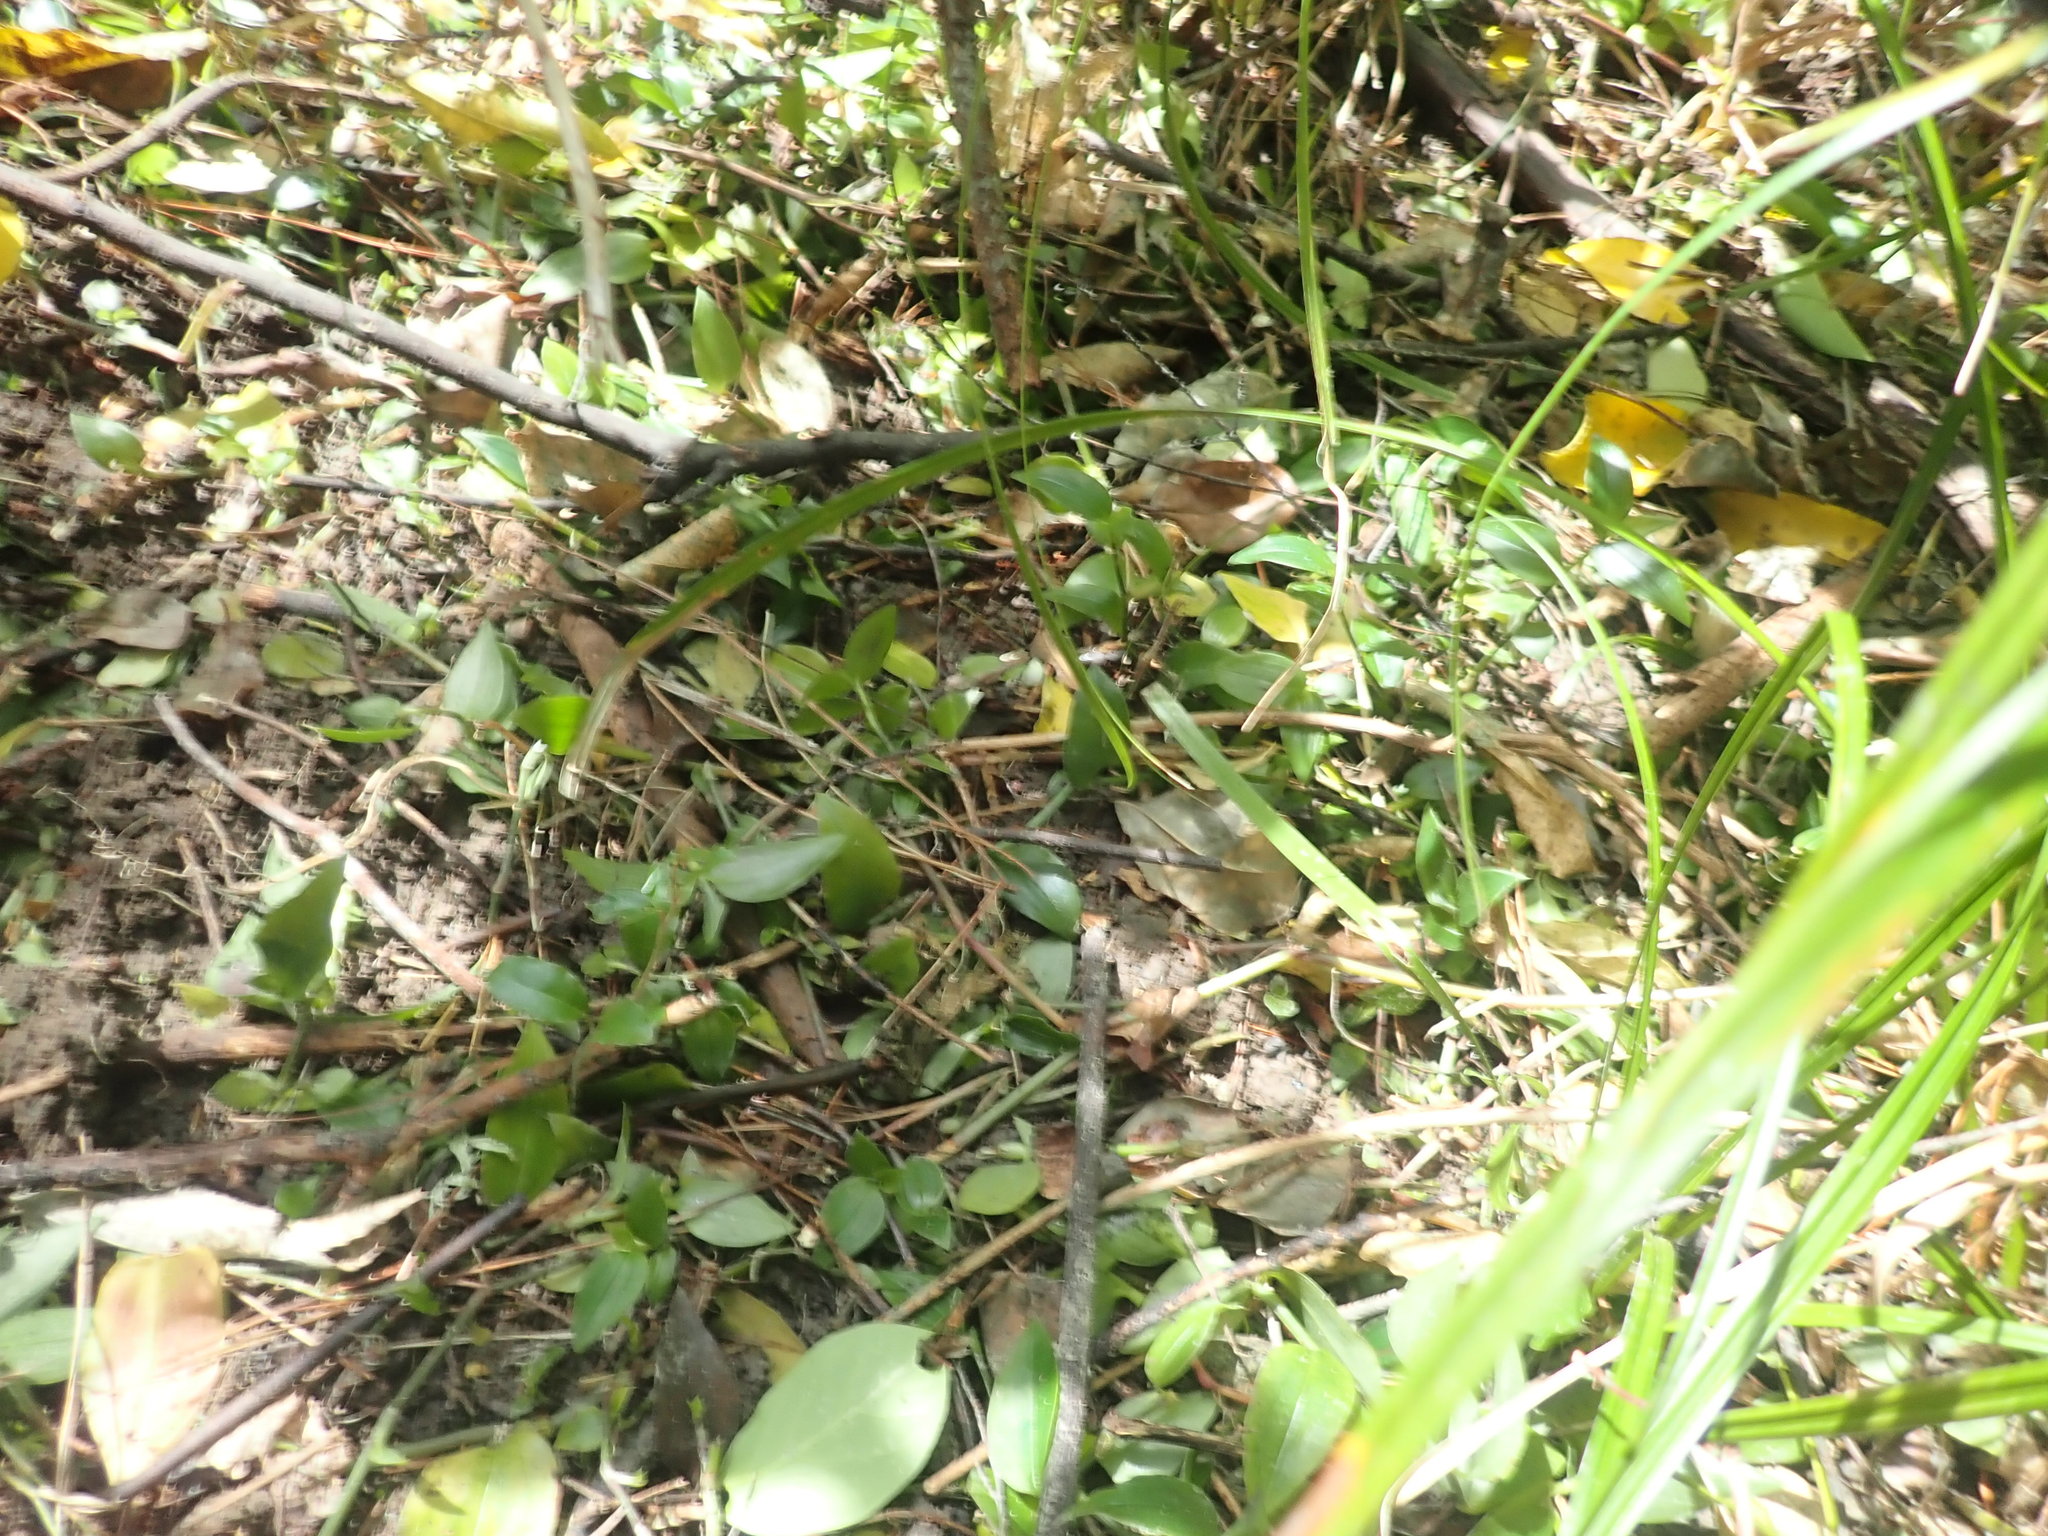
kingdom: Plantae
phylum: Tracheophyta
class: Liliopsida
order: Commelinales
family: Commelinaceae
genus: Tradescantia
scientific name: Tradescantia fluminensis
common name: Wandering-jew
